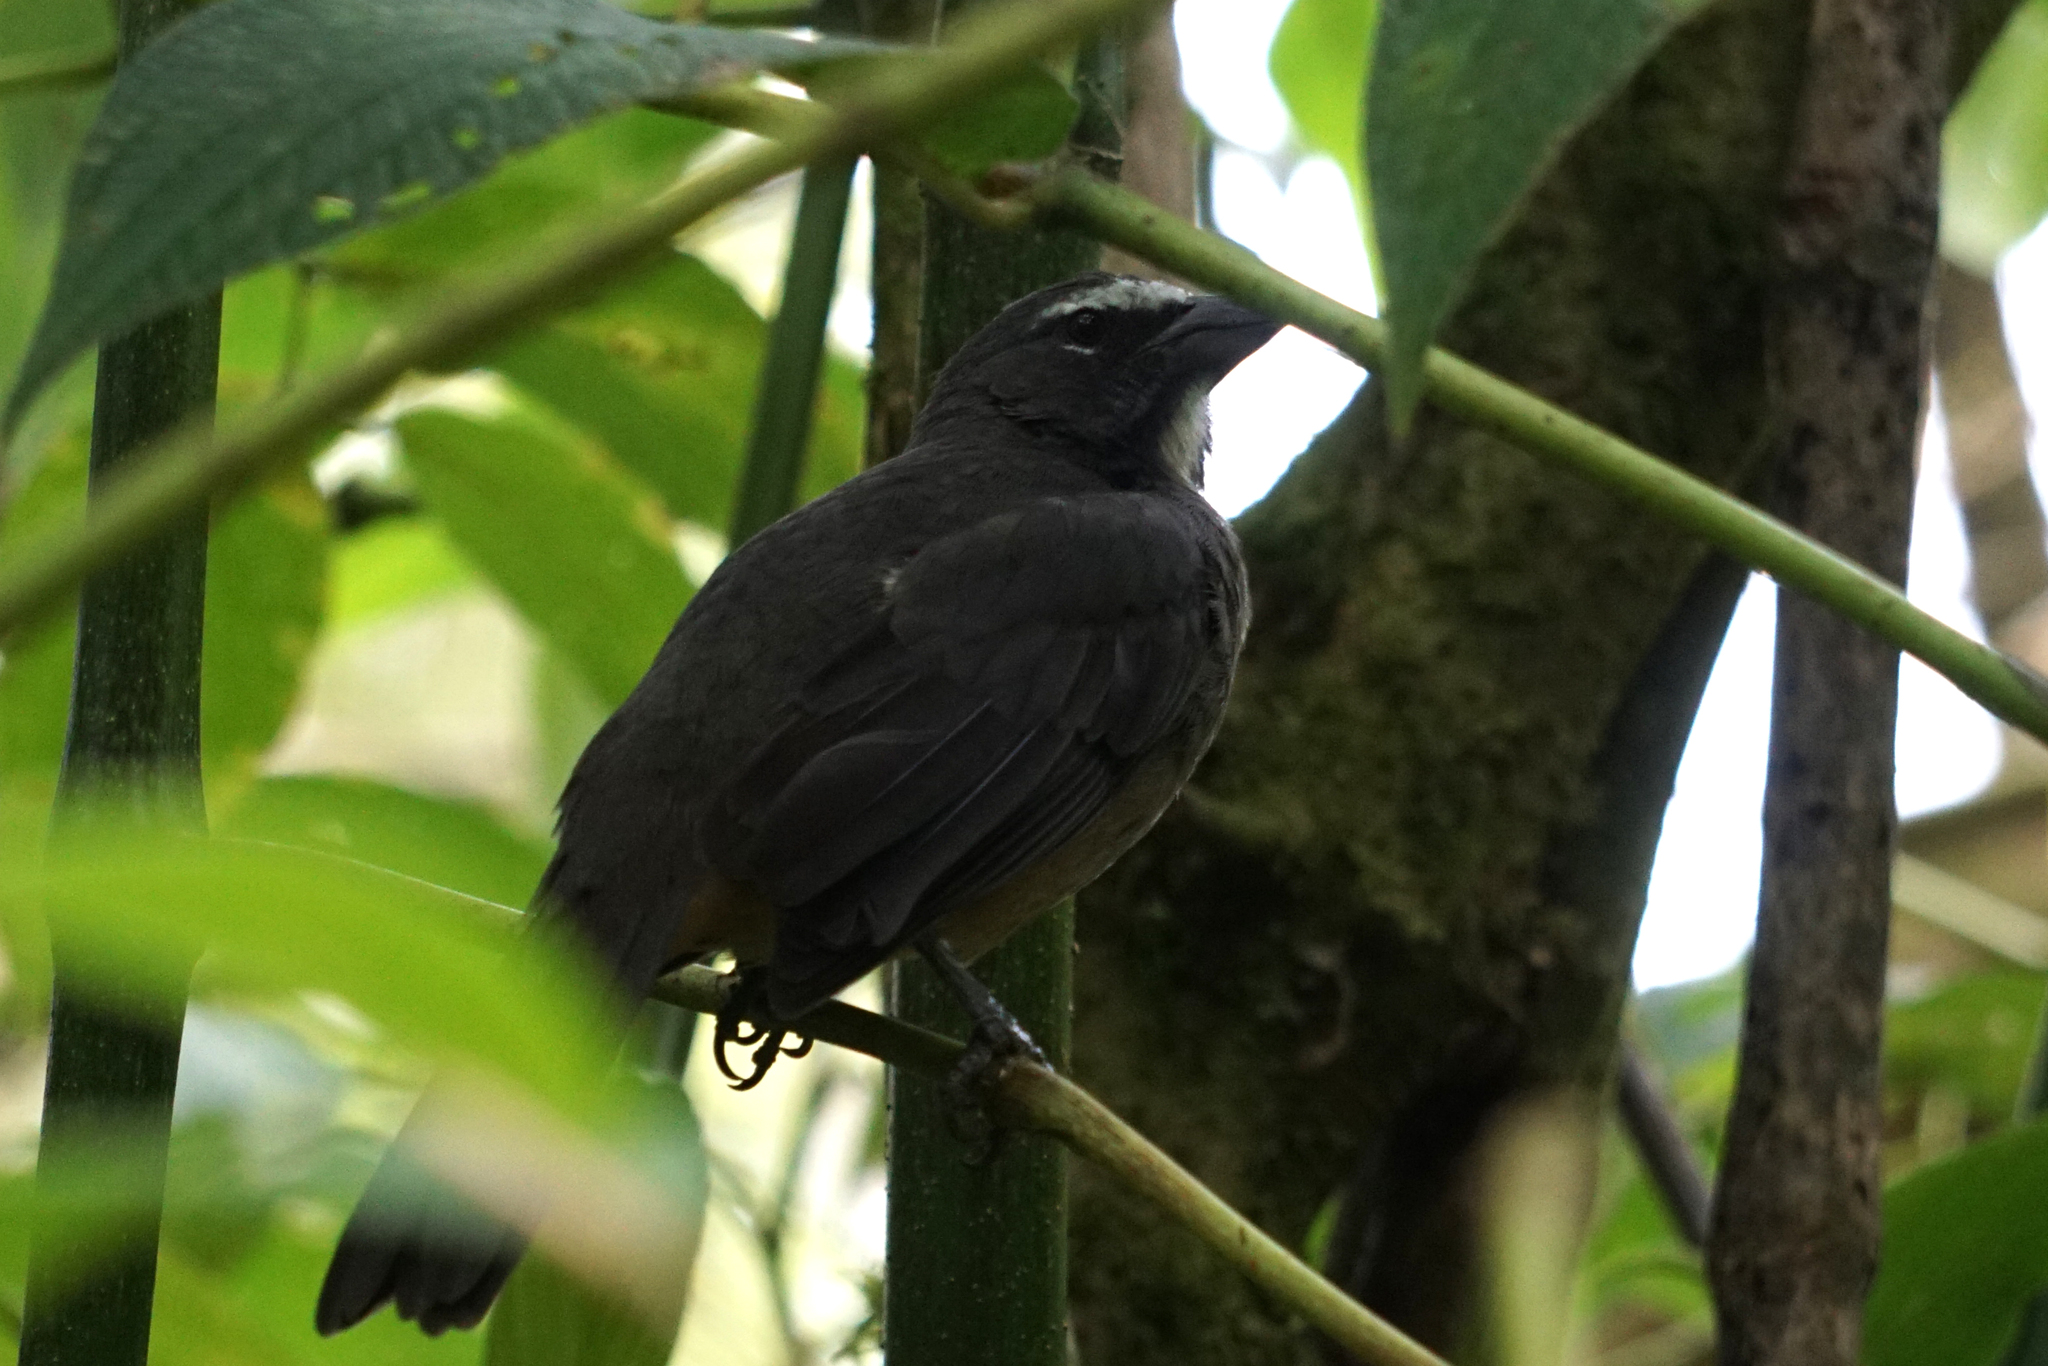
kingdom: Animalia
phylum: Chordata
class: Aves
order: Passeriformes
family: Thraupidae
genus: Saltator
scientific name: Saltator grandis
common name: Cinnamon-bellied saltator
